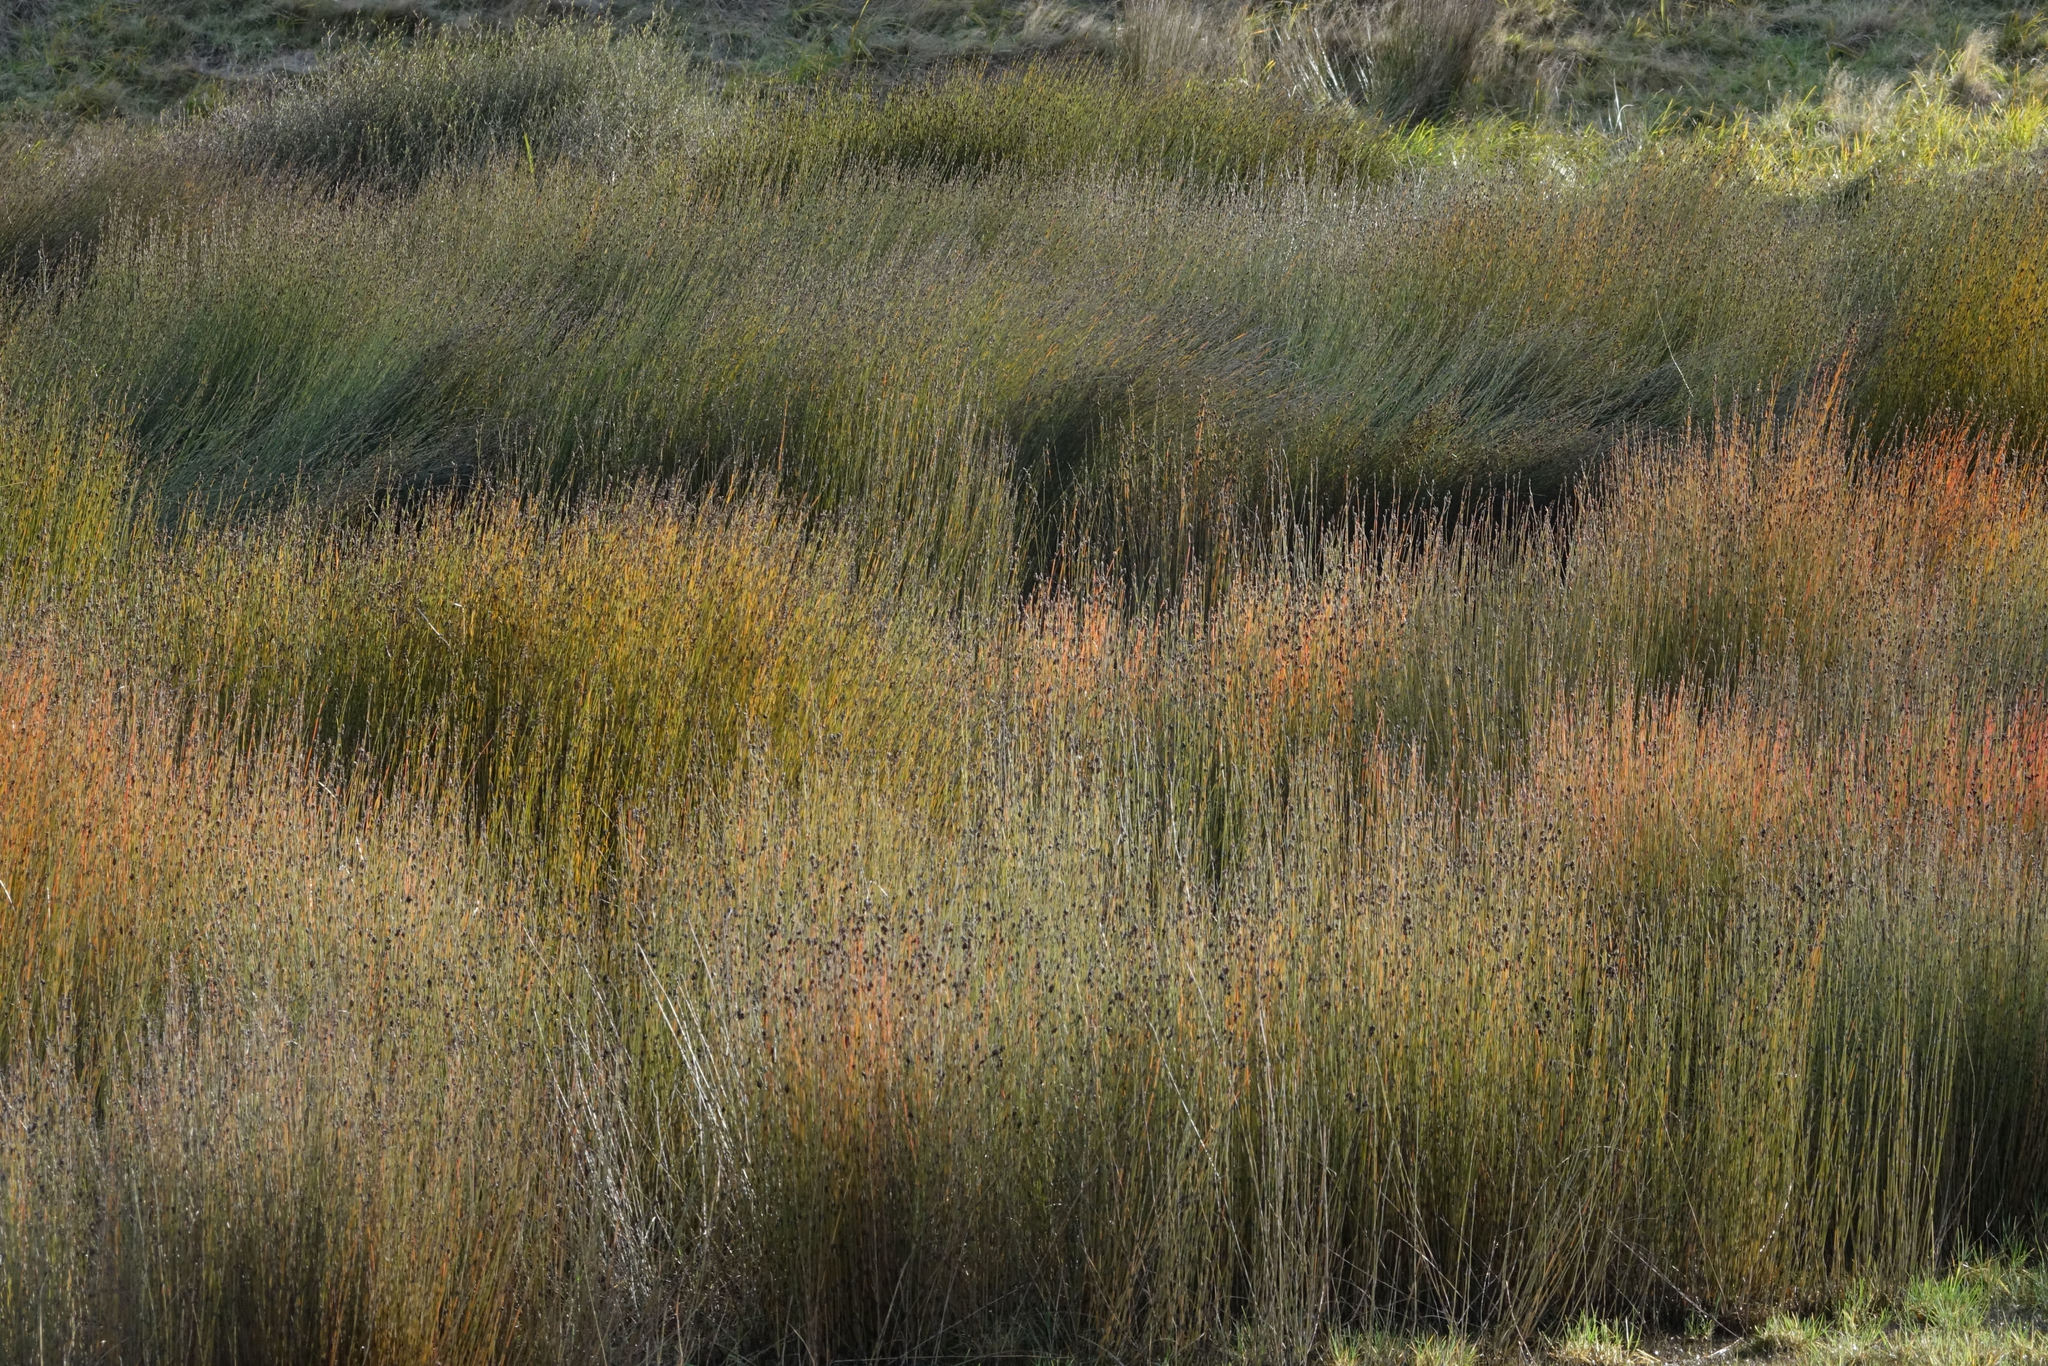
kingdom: Plantae
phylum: Tracheophyta
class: Liliopsida
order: Poales
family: Restionaceae
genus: Apodasmia
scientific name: Apodasmia similis
